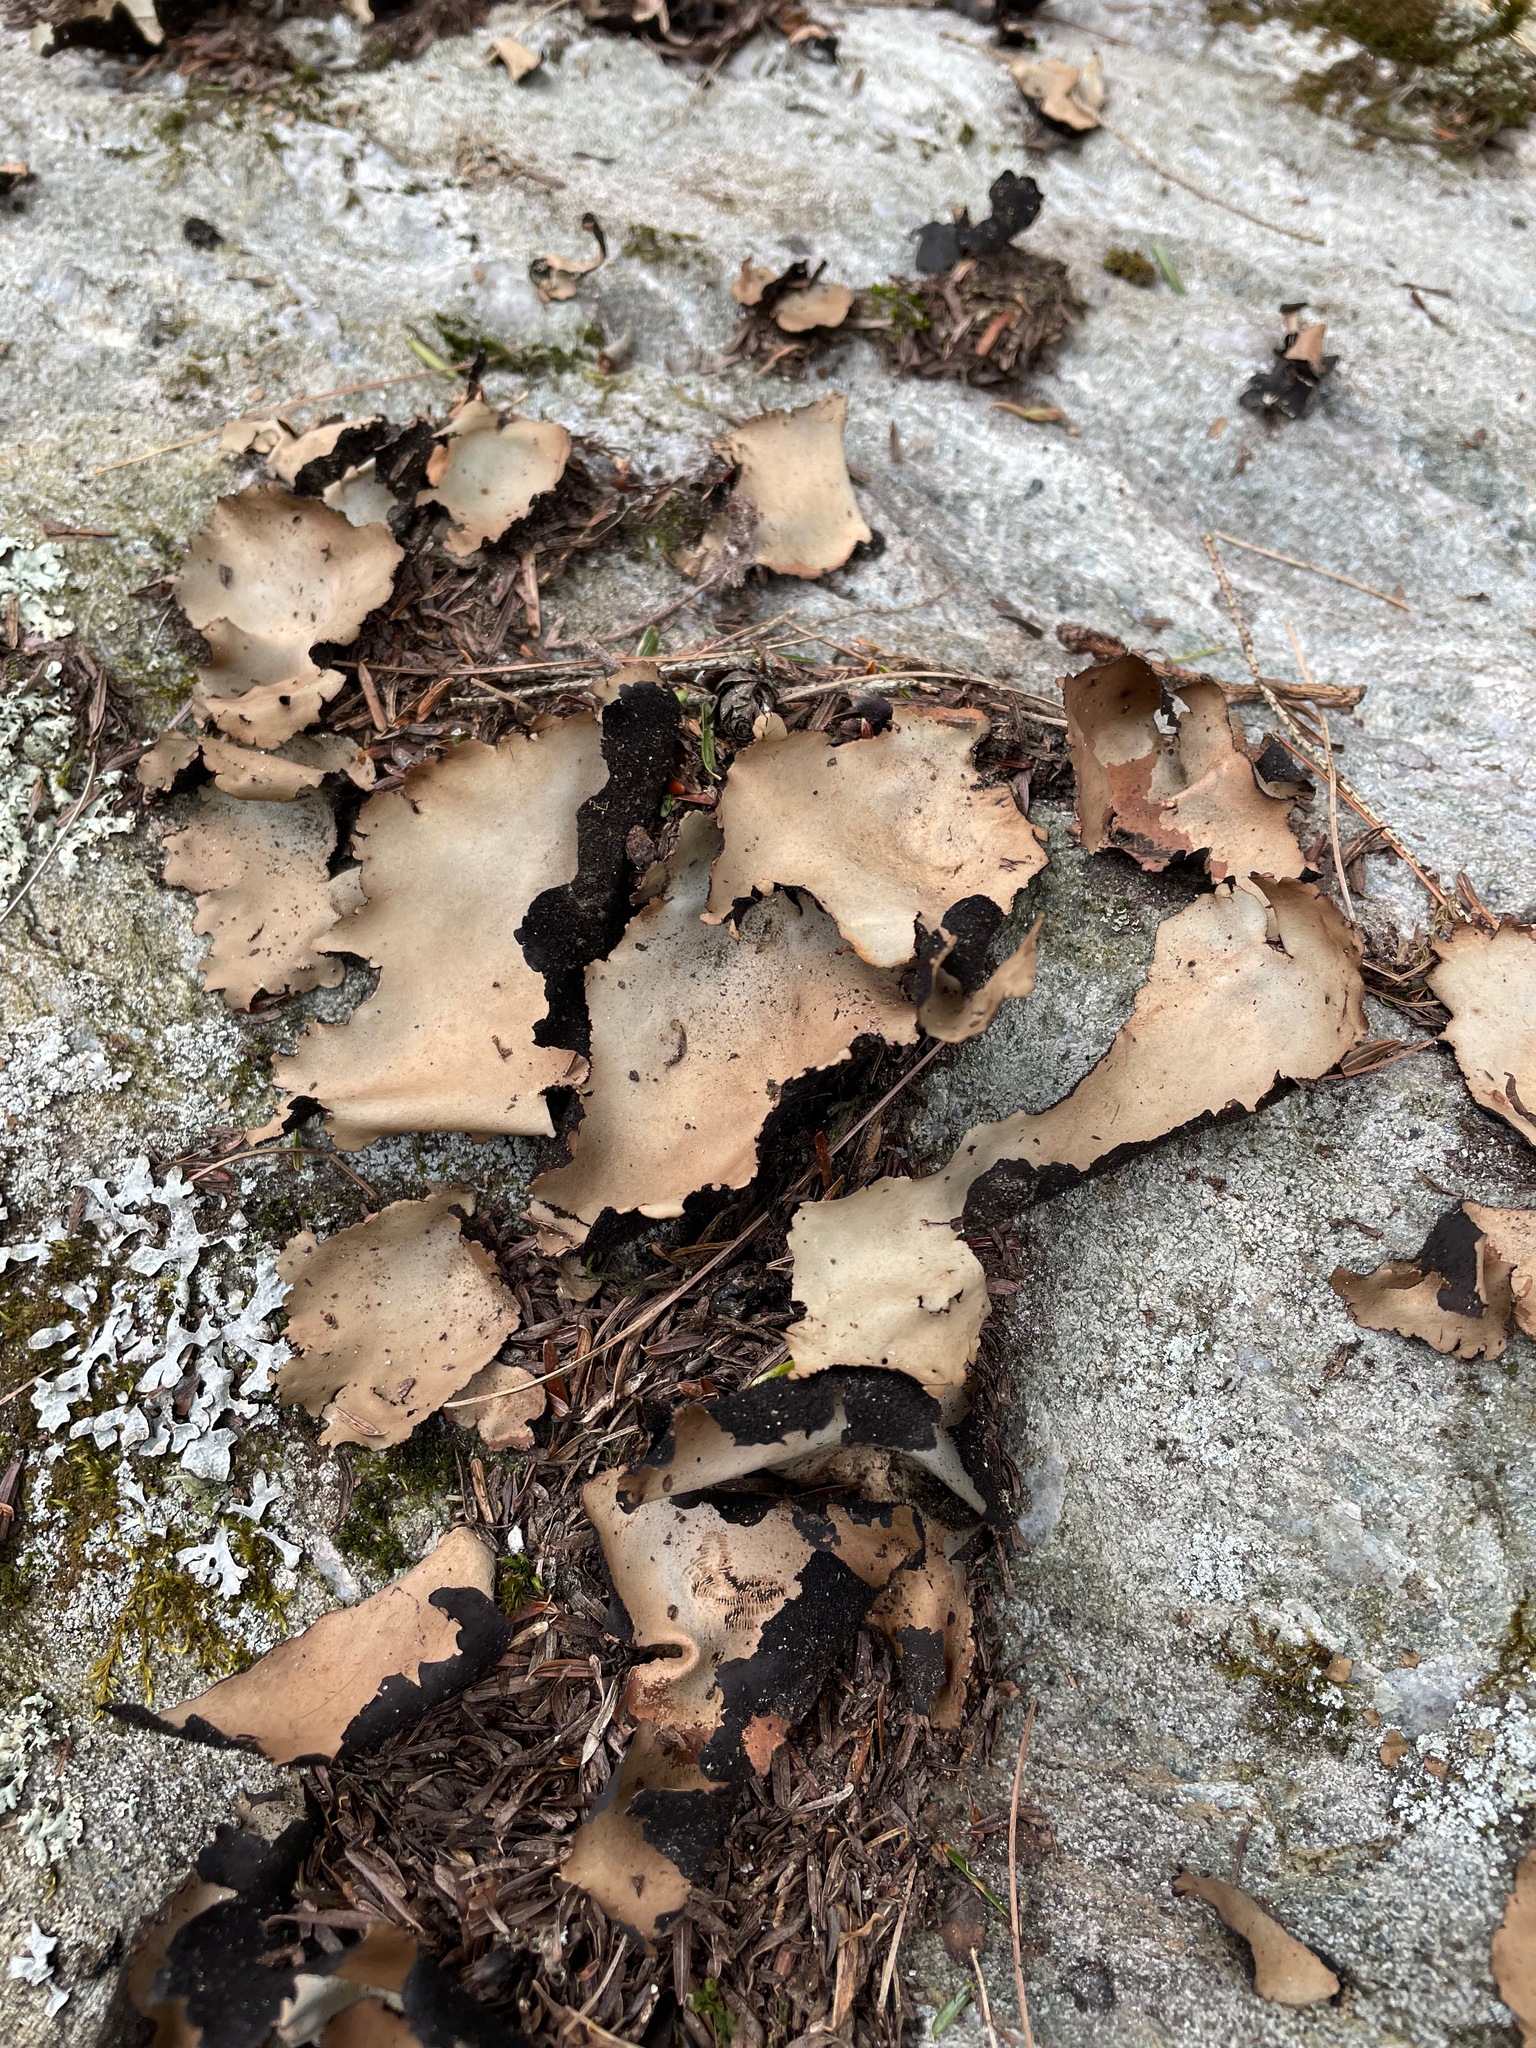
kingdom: Fungi
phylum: Ascomycota
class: Lecanoromycetes
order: Umbilicariales
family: Umbilicariaceae
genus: Umbilicaria
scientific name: Umbilicaria mammulata
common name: Smooth rock tripe
